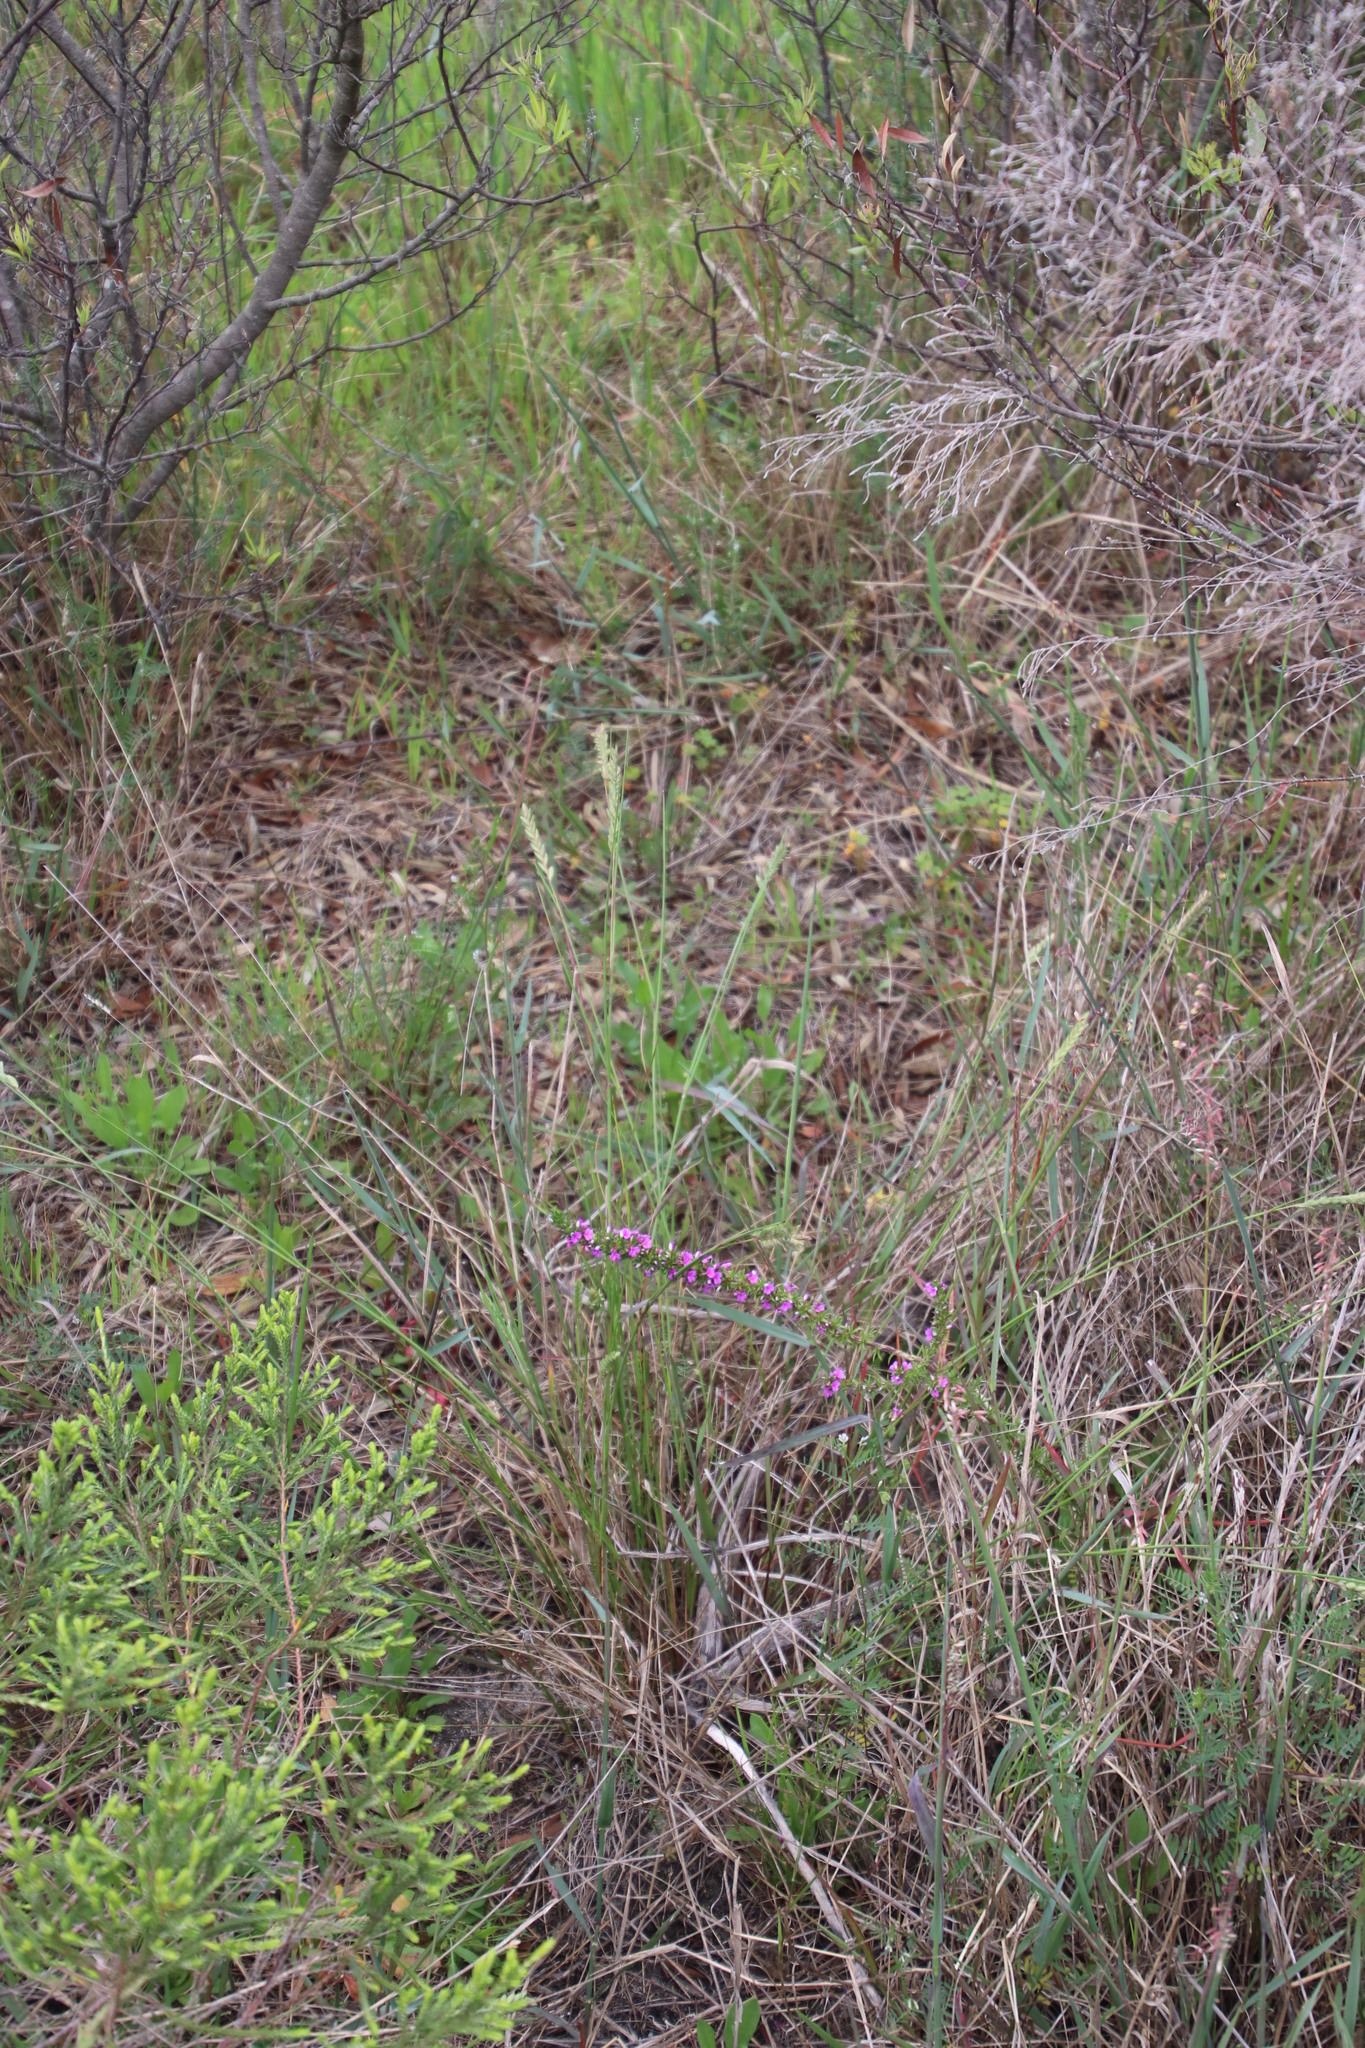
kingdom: Plantae
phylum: Tracheophyta
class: Liliopsida
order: Poales
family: Poaceae
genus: Tribolium
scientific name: Tribolium uniolae
